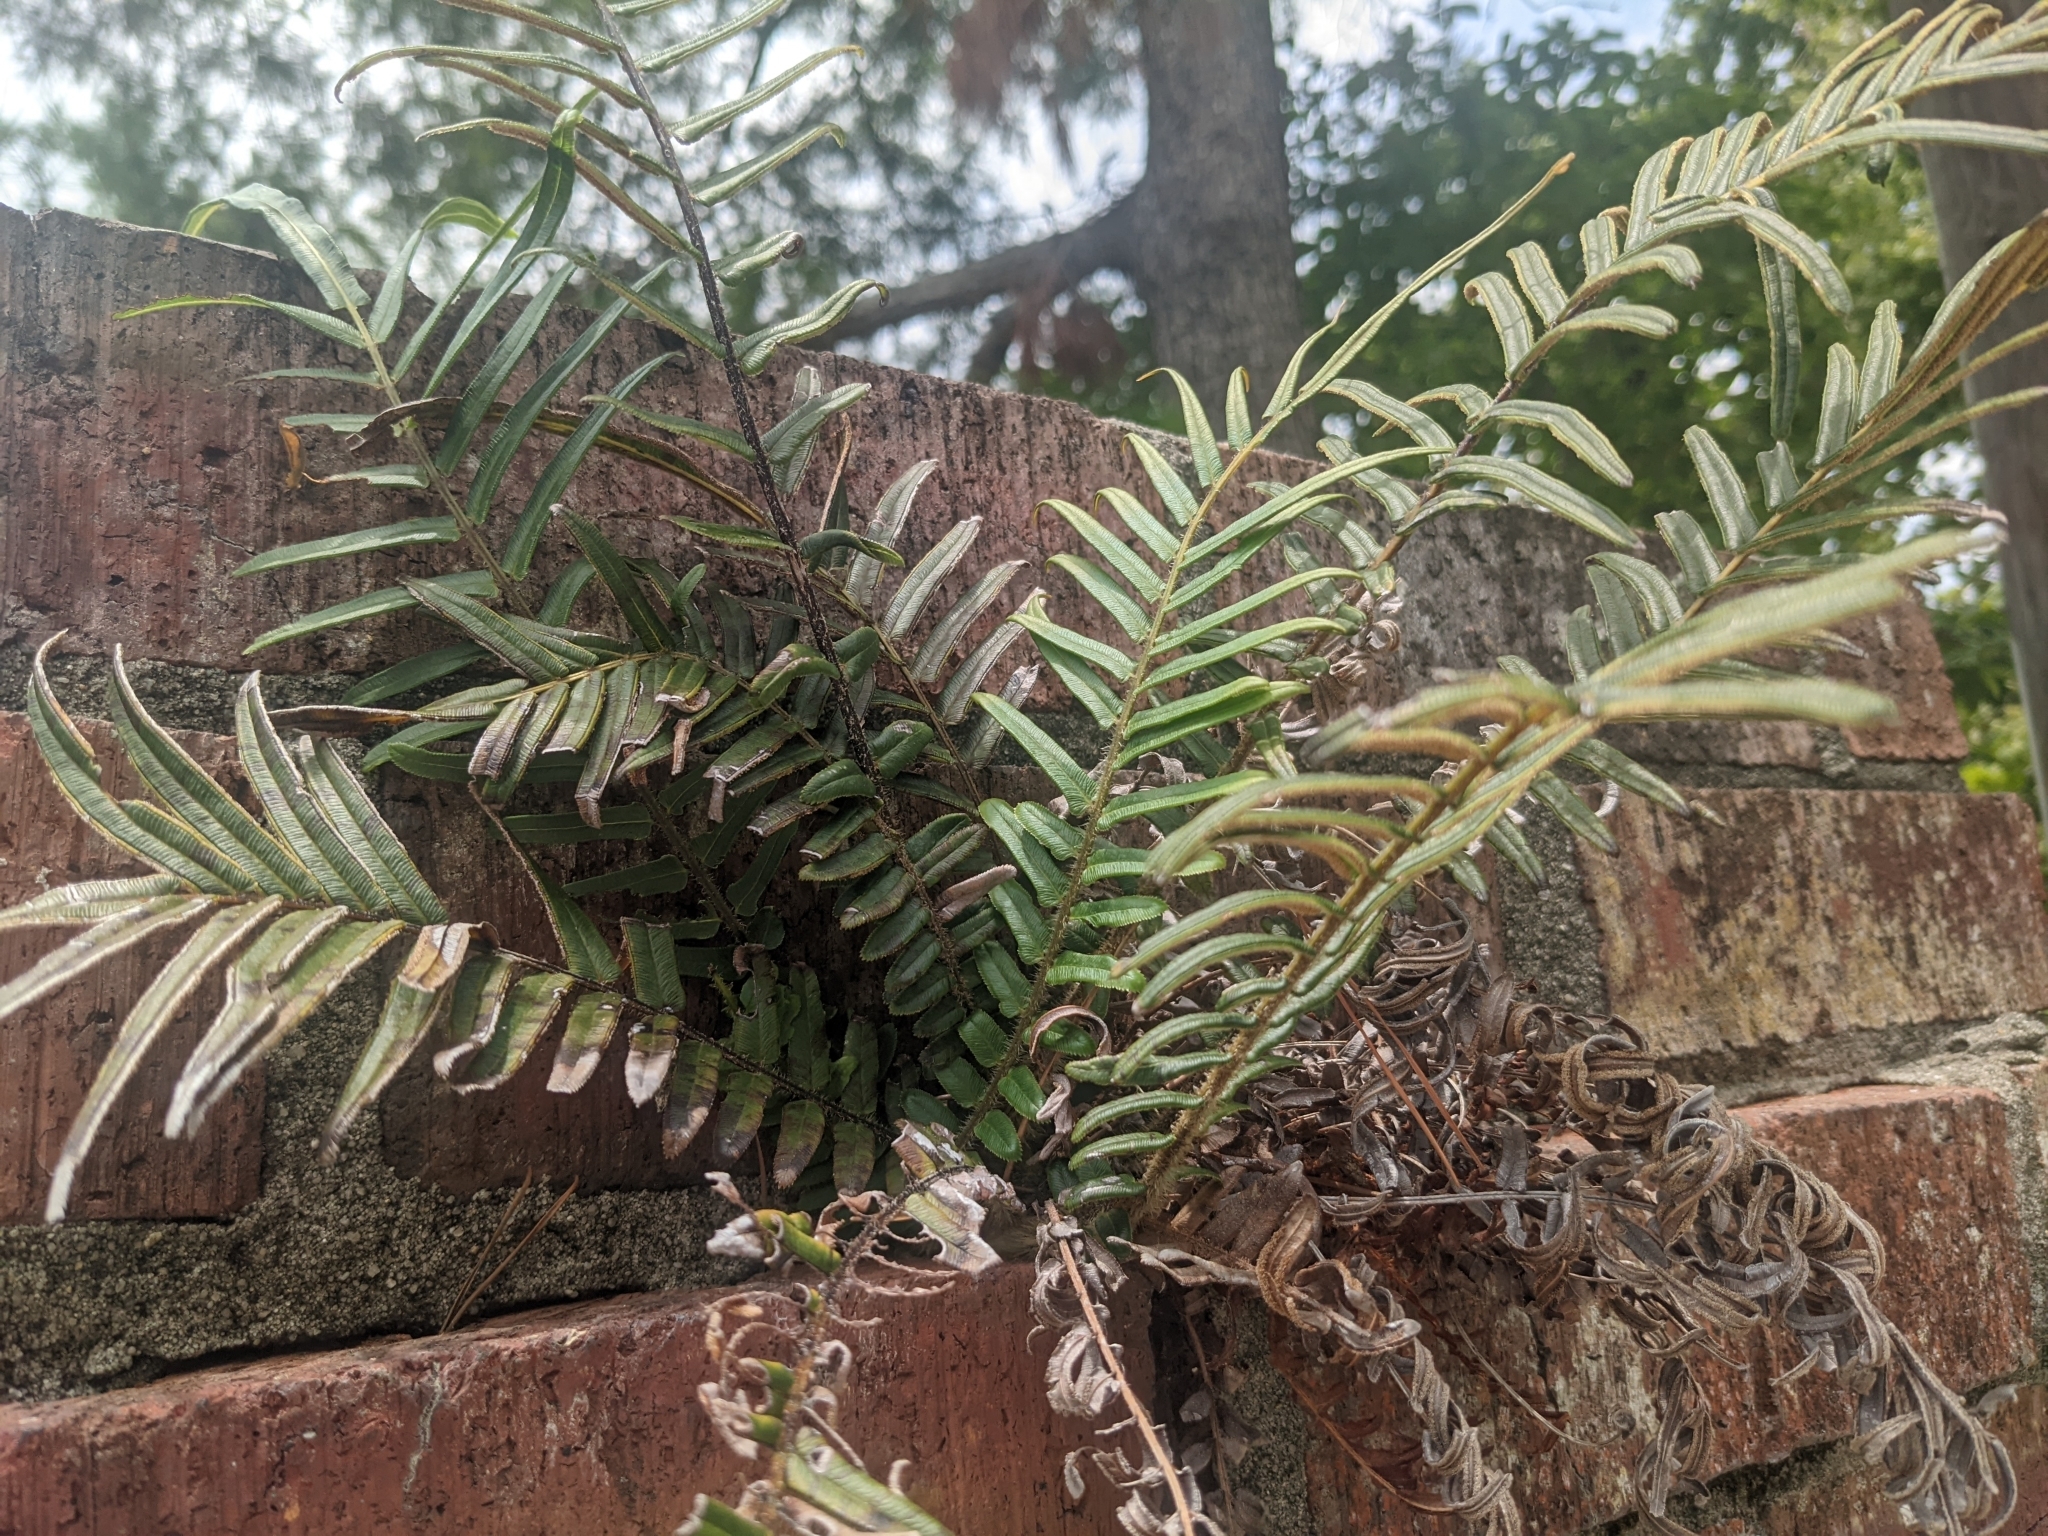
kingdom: Plantae
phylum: Tracheophyta
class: Polypodiopsida
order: Polypodiales
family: Pteridaceae
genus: Pteris
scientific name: Pteris vittata
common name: Ladder brake
